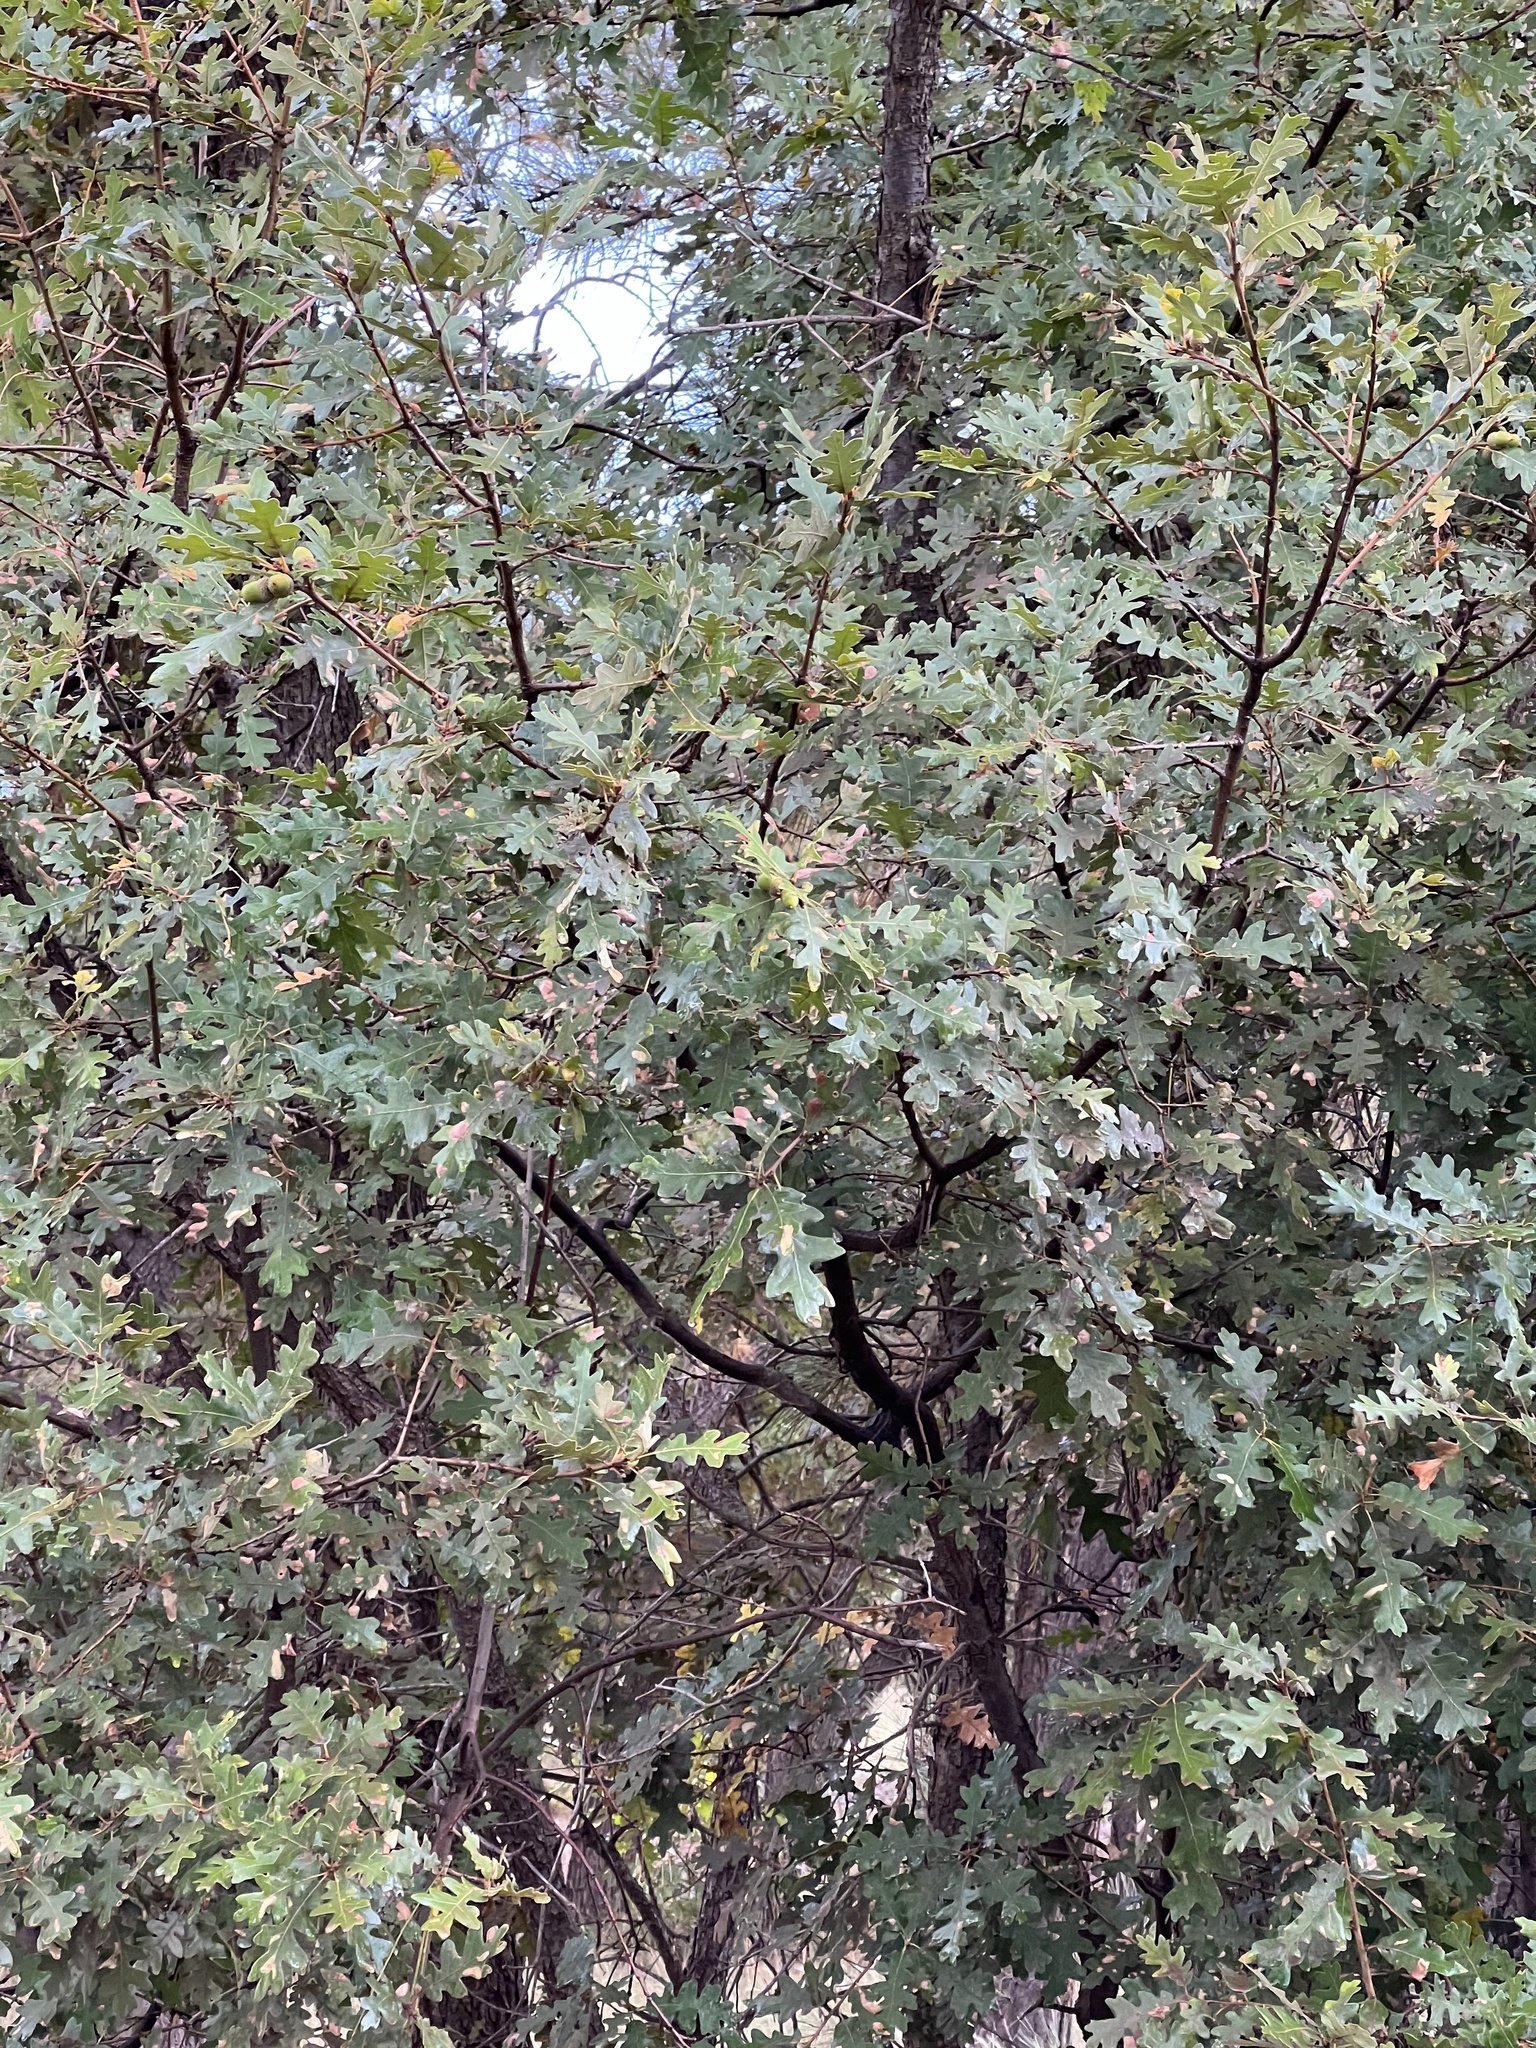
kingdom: Plantae
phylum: Tracheophyta
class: Magnoliopsida
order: Fagales
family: Fagaceae
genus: Quercus
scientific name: Quercus gambelii
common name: Gambel oak
